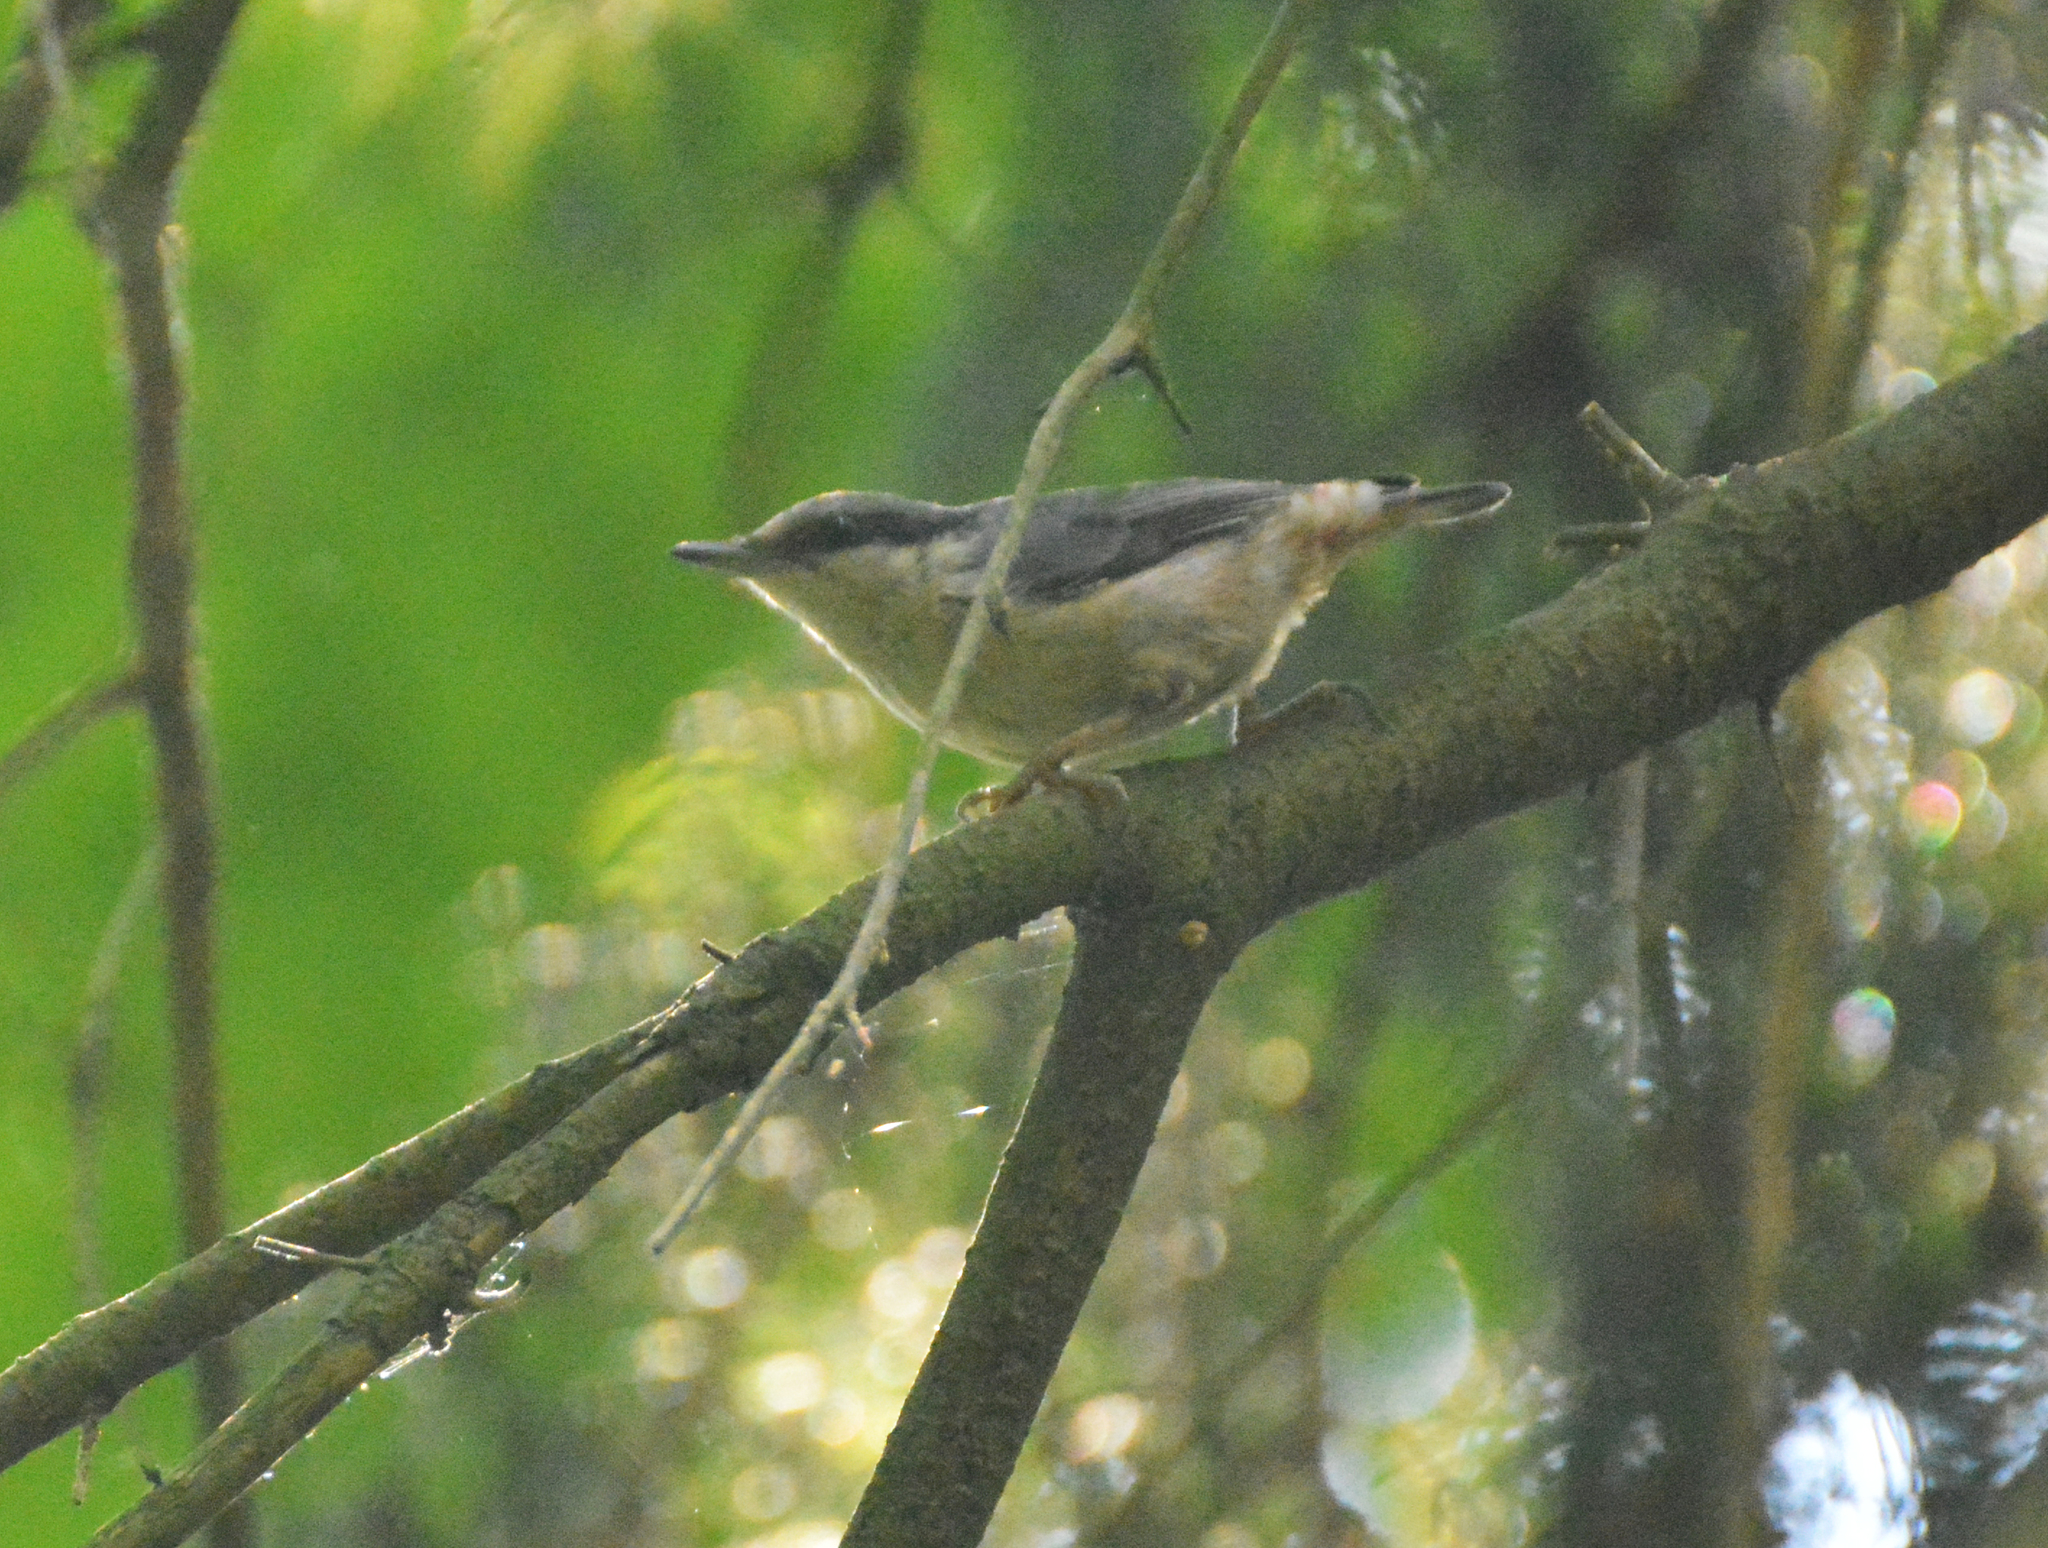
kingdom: Animalia
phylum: Chordata
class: Aves
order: Passeriformes
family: Sittidae
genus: Sitta
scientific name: Sitta europaea
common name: Eurasian nuthatch
